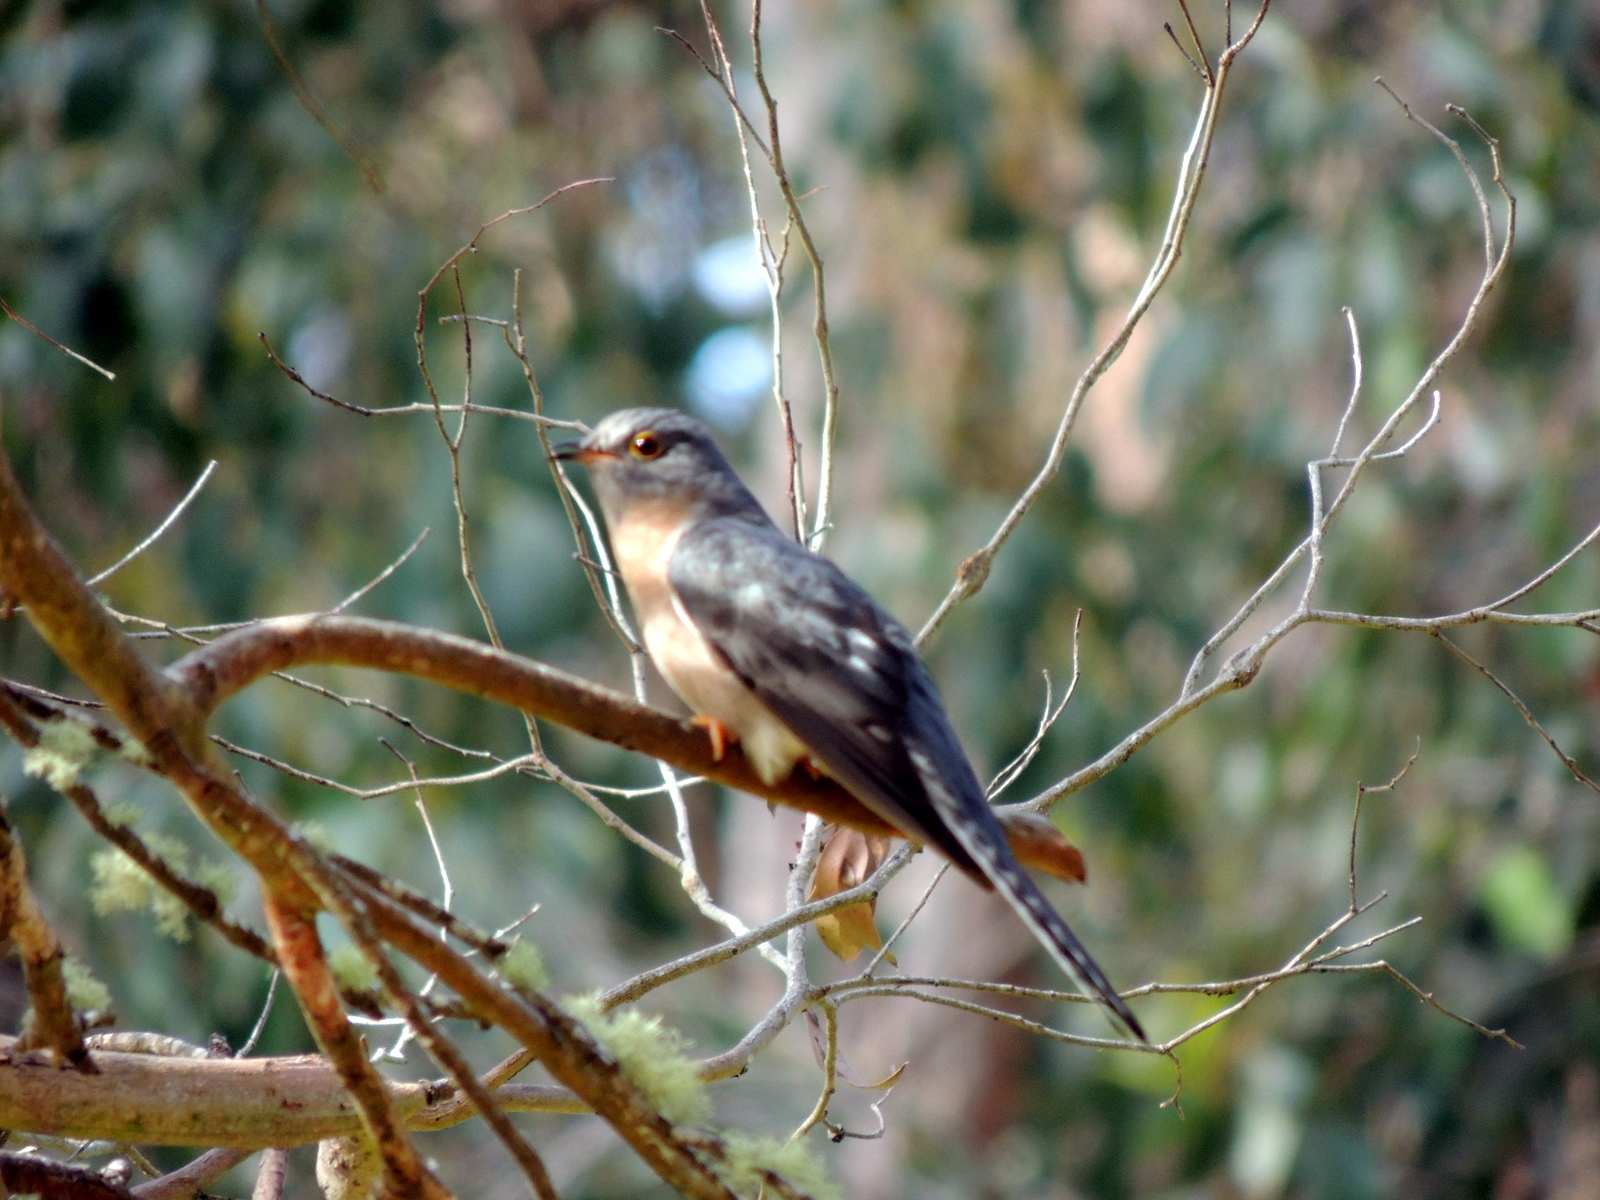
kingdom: Animalia
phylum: Chordata
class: Aves
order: Cuculiformes
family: Cuculidae
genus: Cacomantis
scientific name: Cacomantis flabelliformis
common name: Fan-tailed cuckoo
